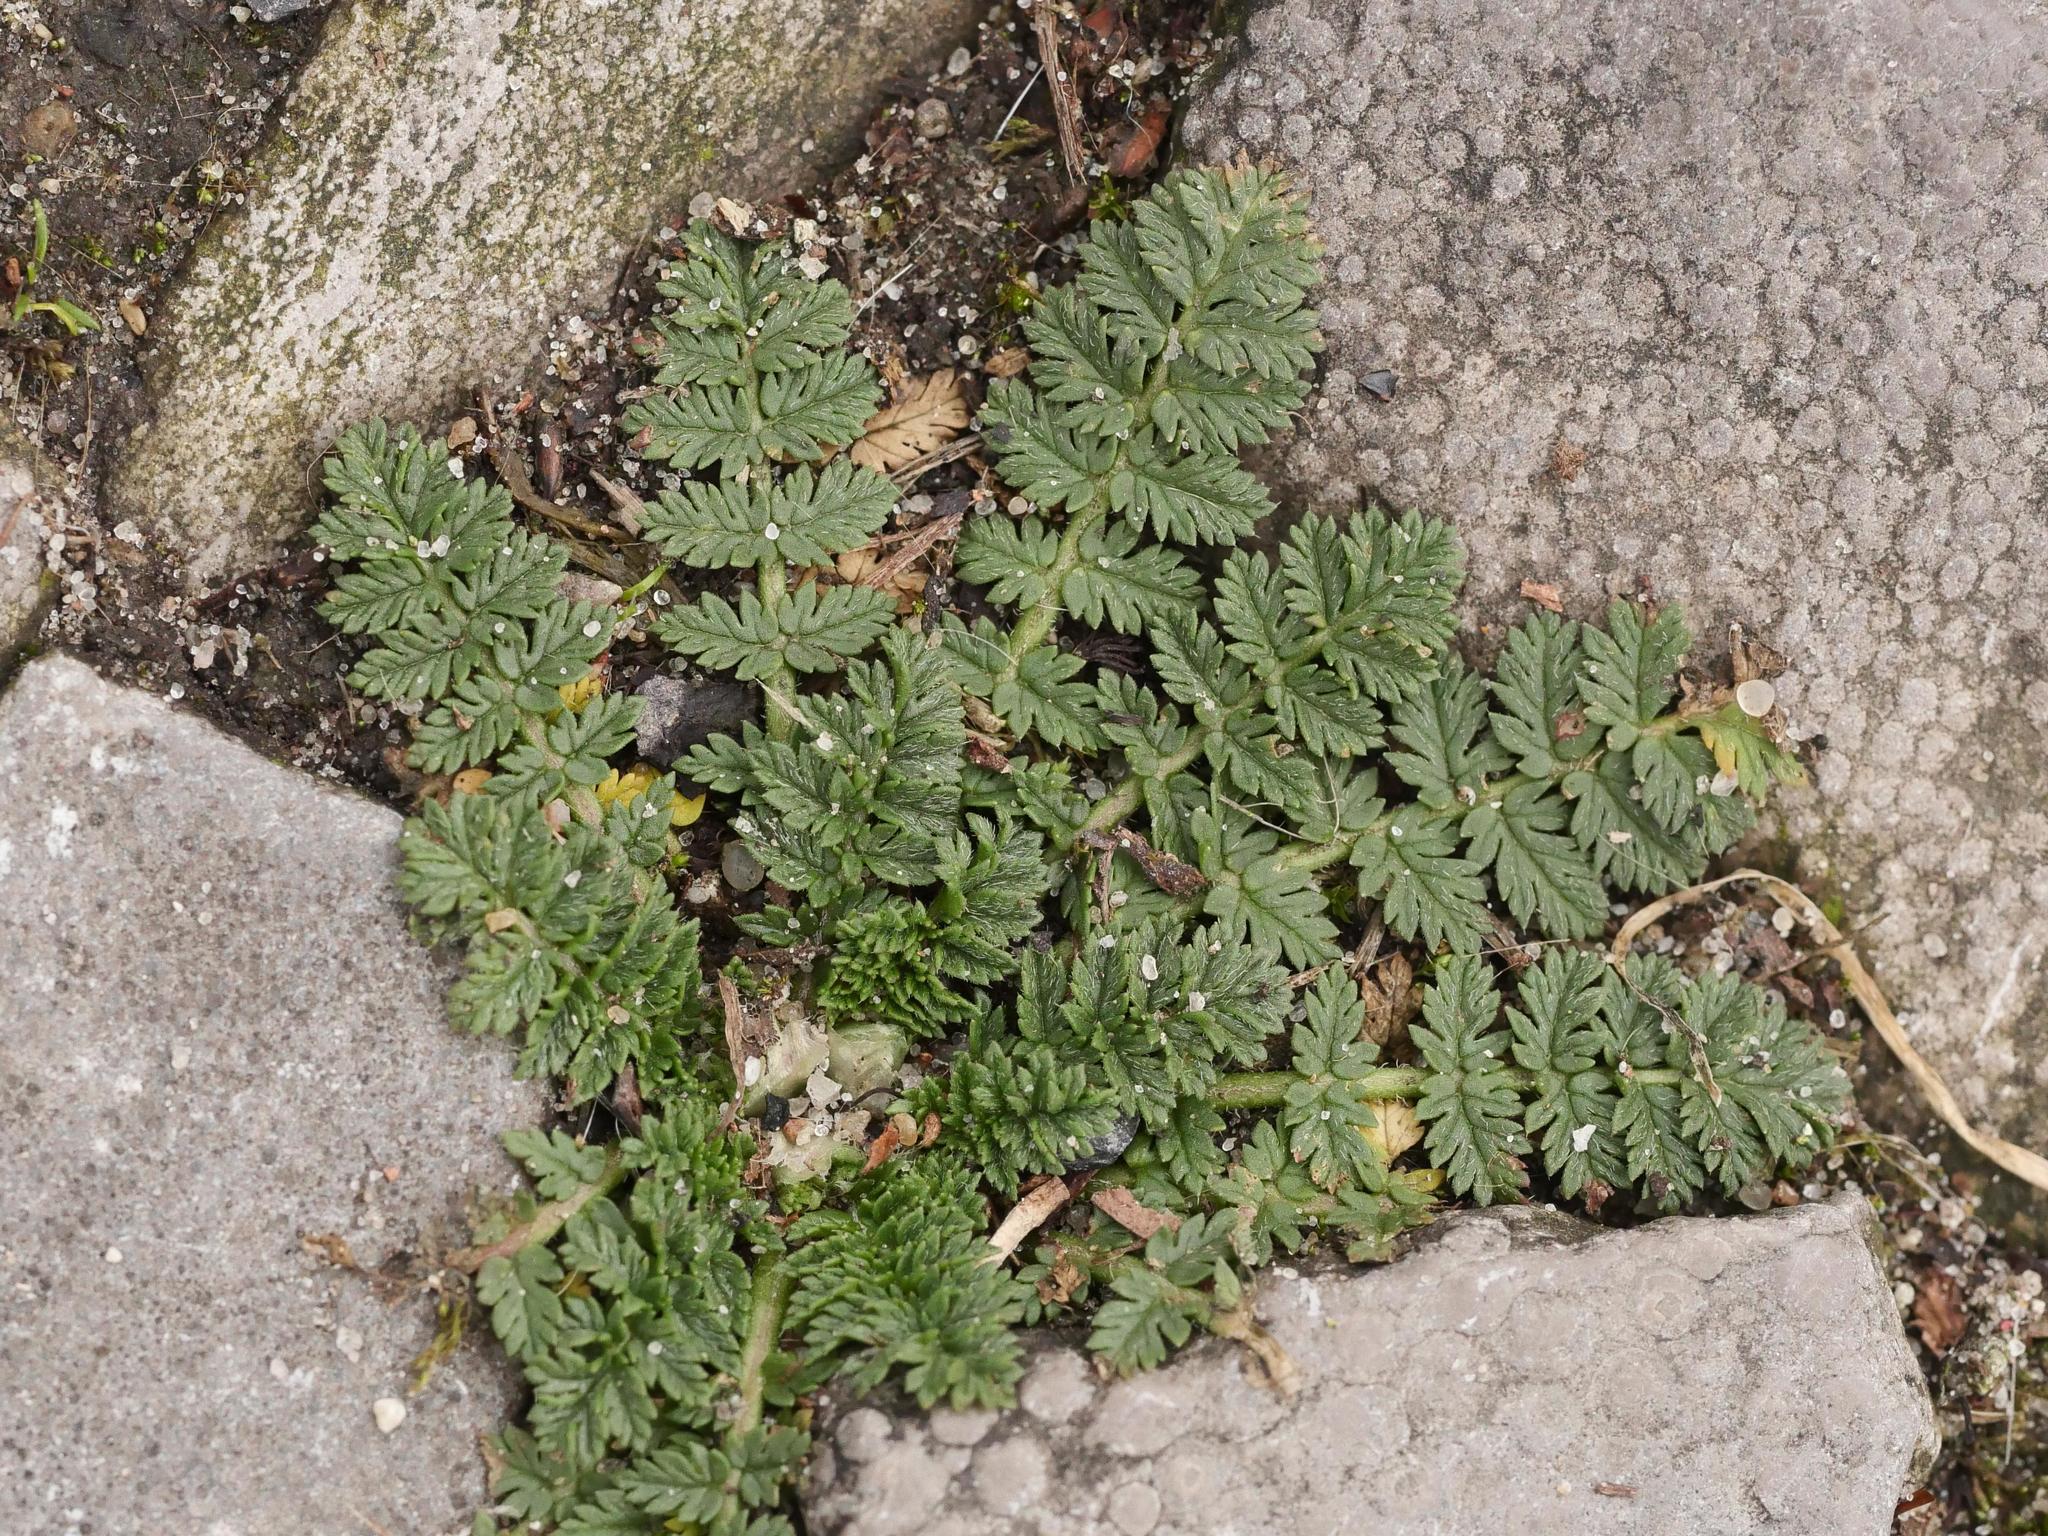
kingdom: Plantae
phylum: Tracheophyta
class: Magnoliopsida
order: Geraniales
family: Geraniaceae
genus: Erodium
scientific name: Erodium cicutarium
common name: Common stork's-bill
